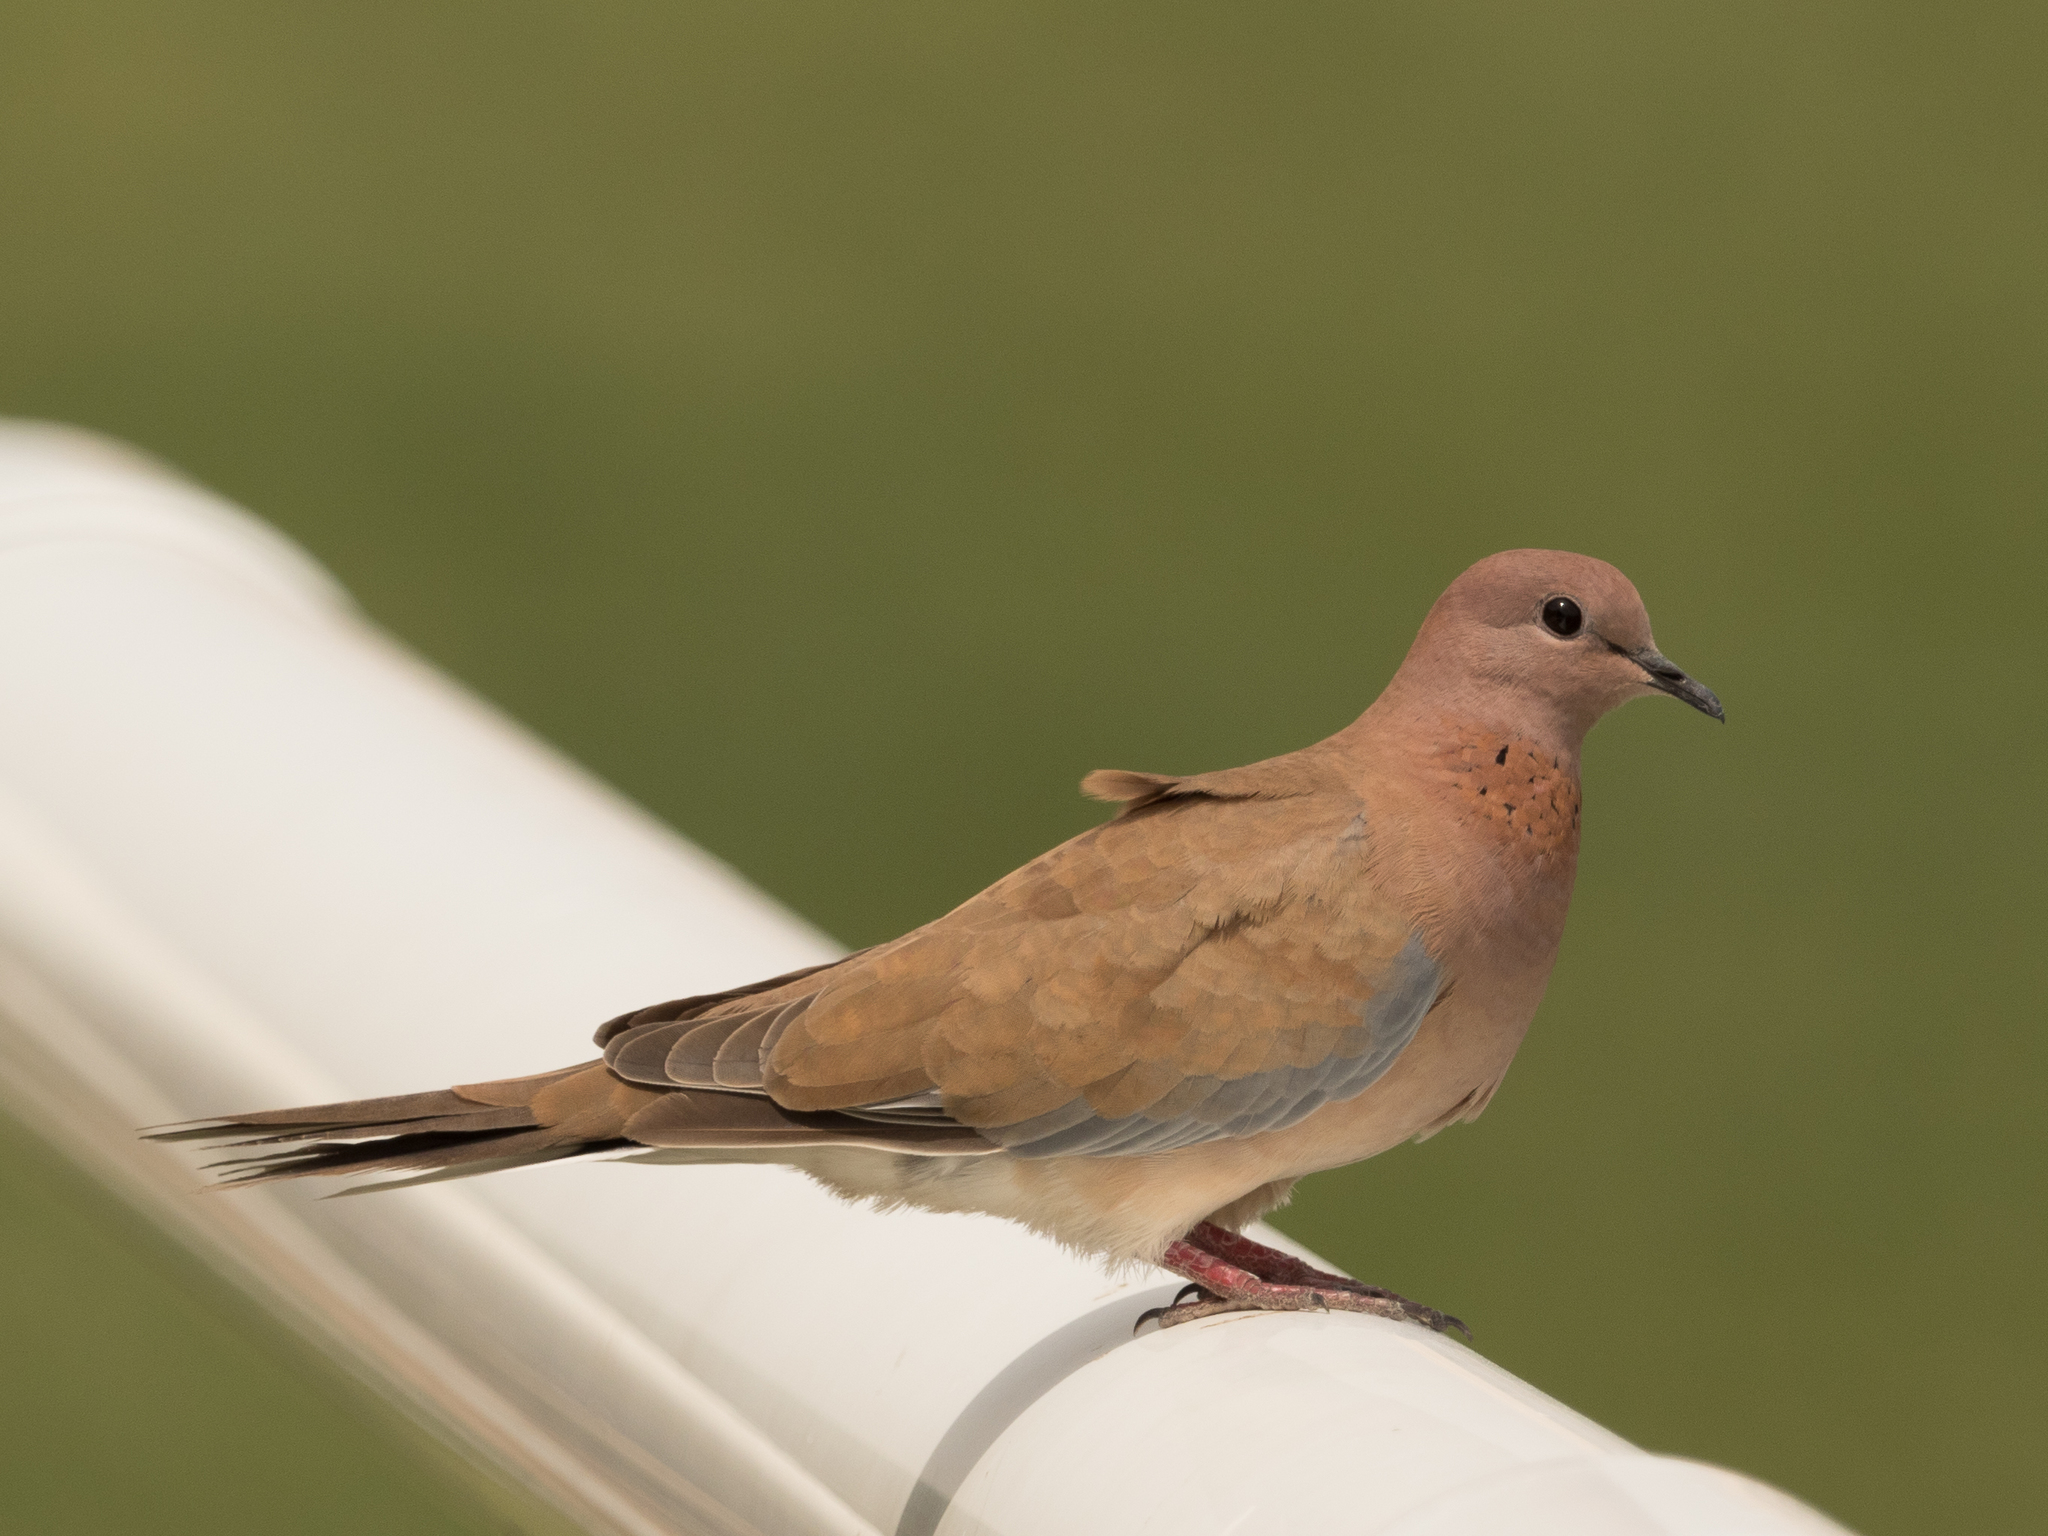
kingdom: Animalia
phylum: Chordata
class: Aves
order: Columbiformes
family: Columbidae
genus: Spilopelia
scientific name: Spilopelia senegalensis
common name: Laughing dove
